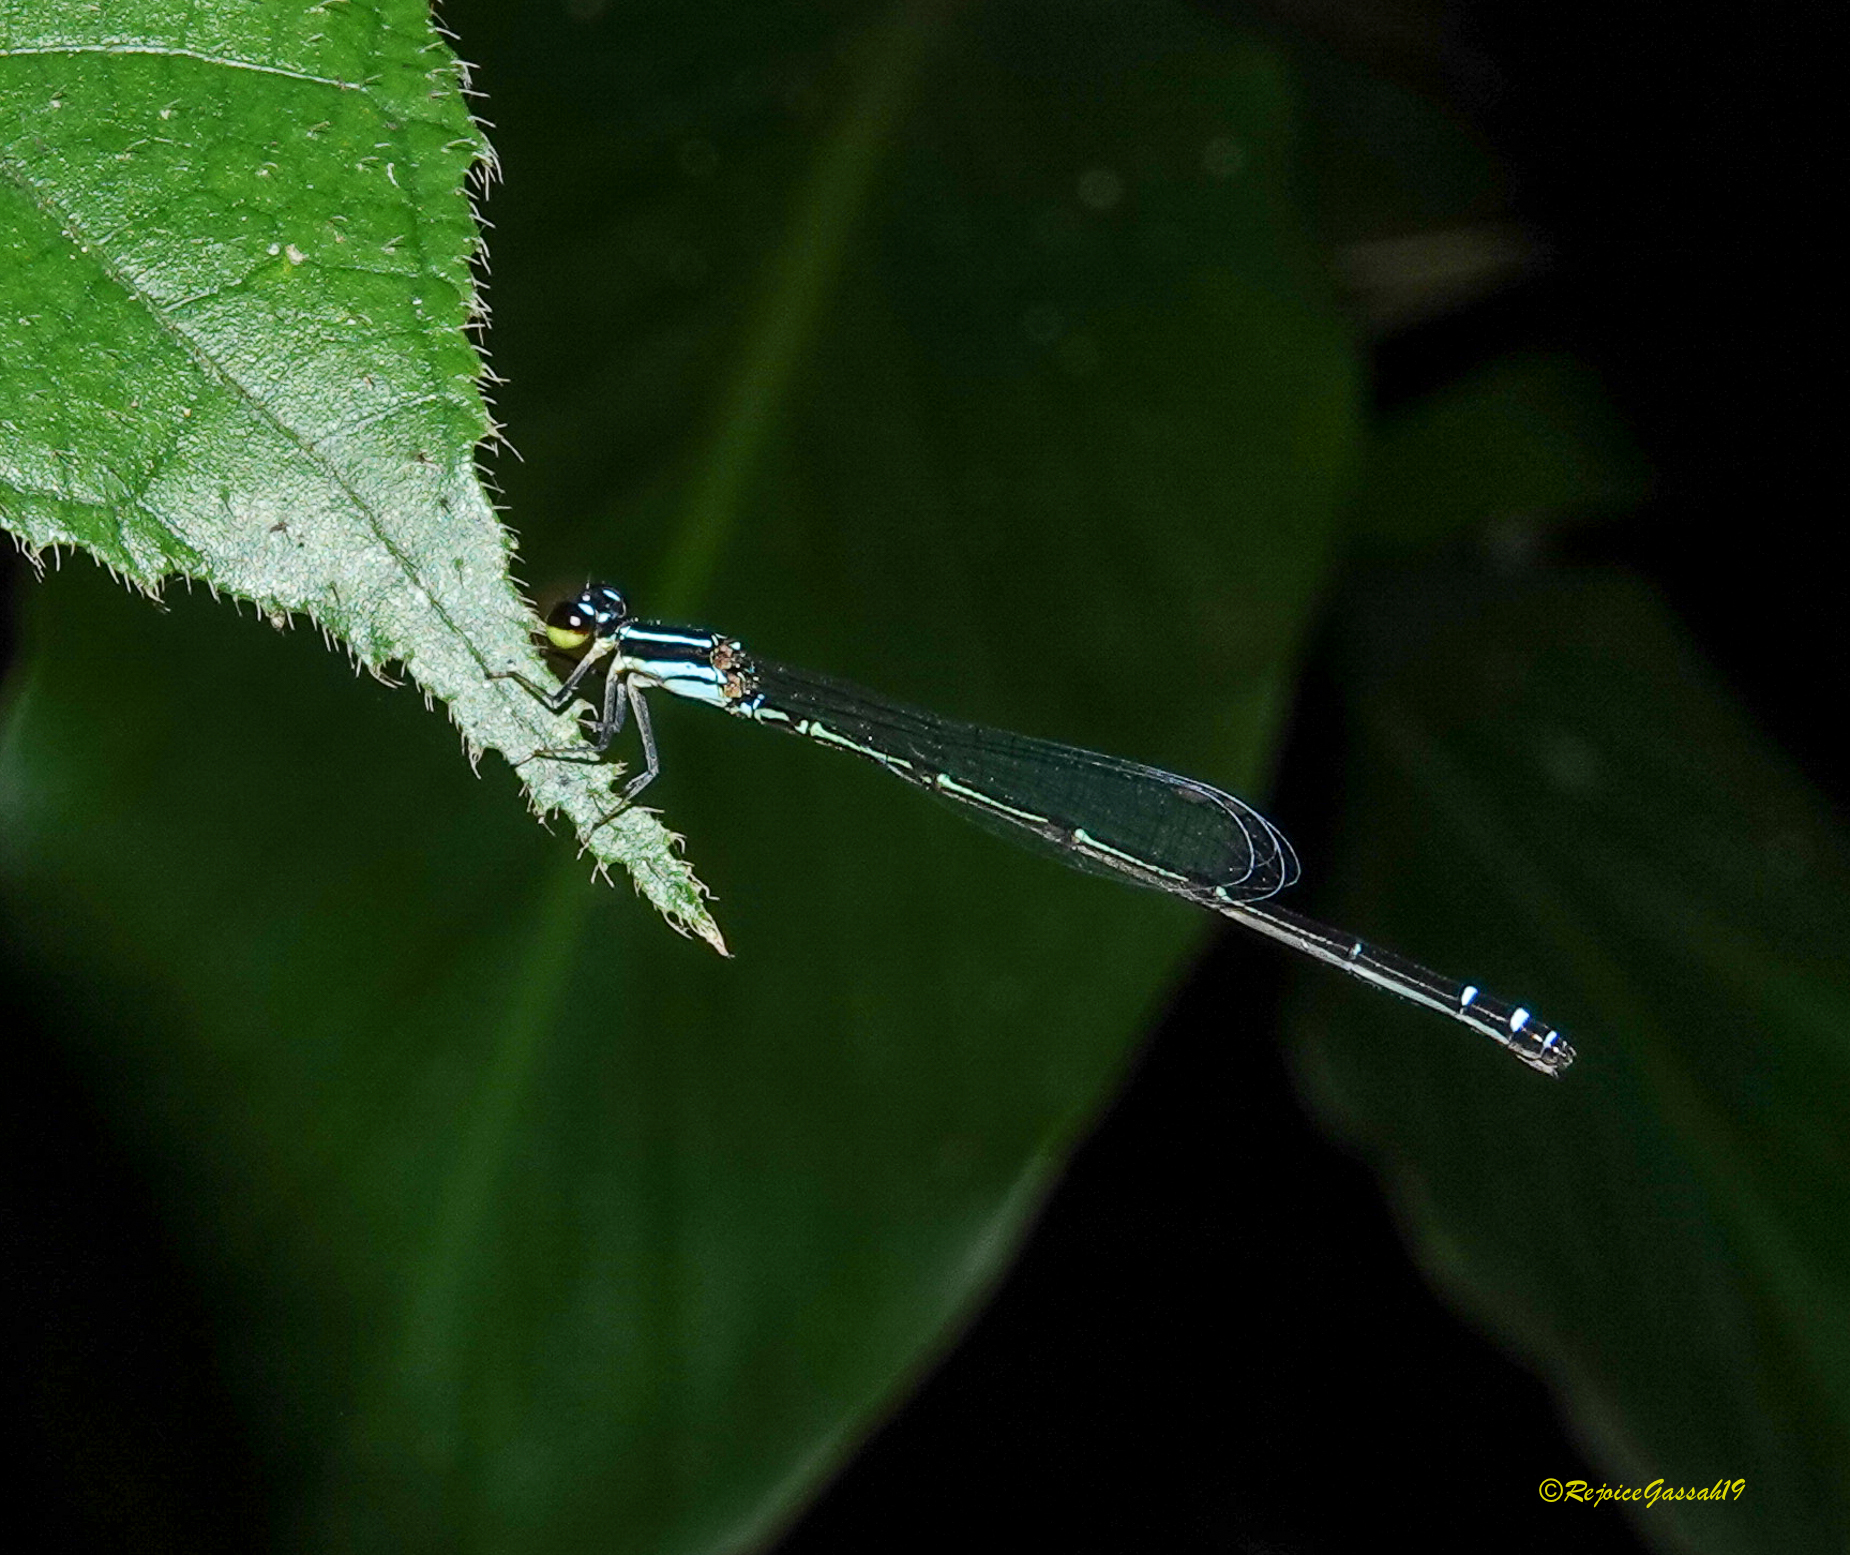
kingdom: Animalia
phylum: Arthropoda
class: Insecta
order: Odonata
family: Coenagrionidae
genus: Mortonagrion
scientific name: Mortonagrion aborense
